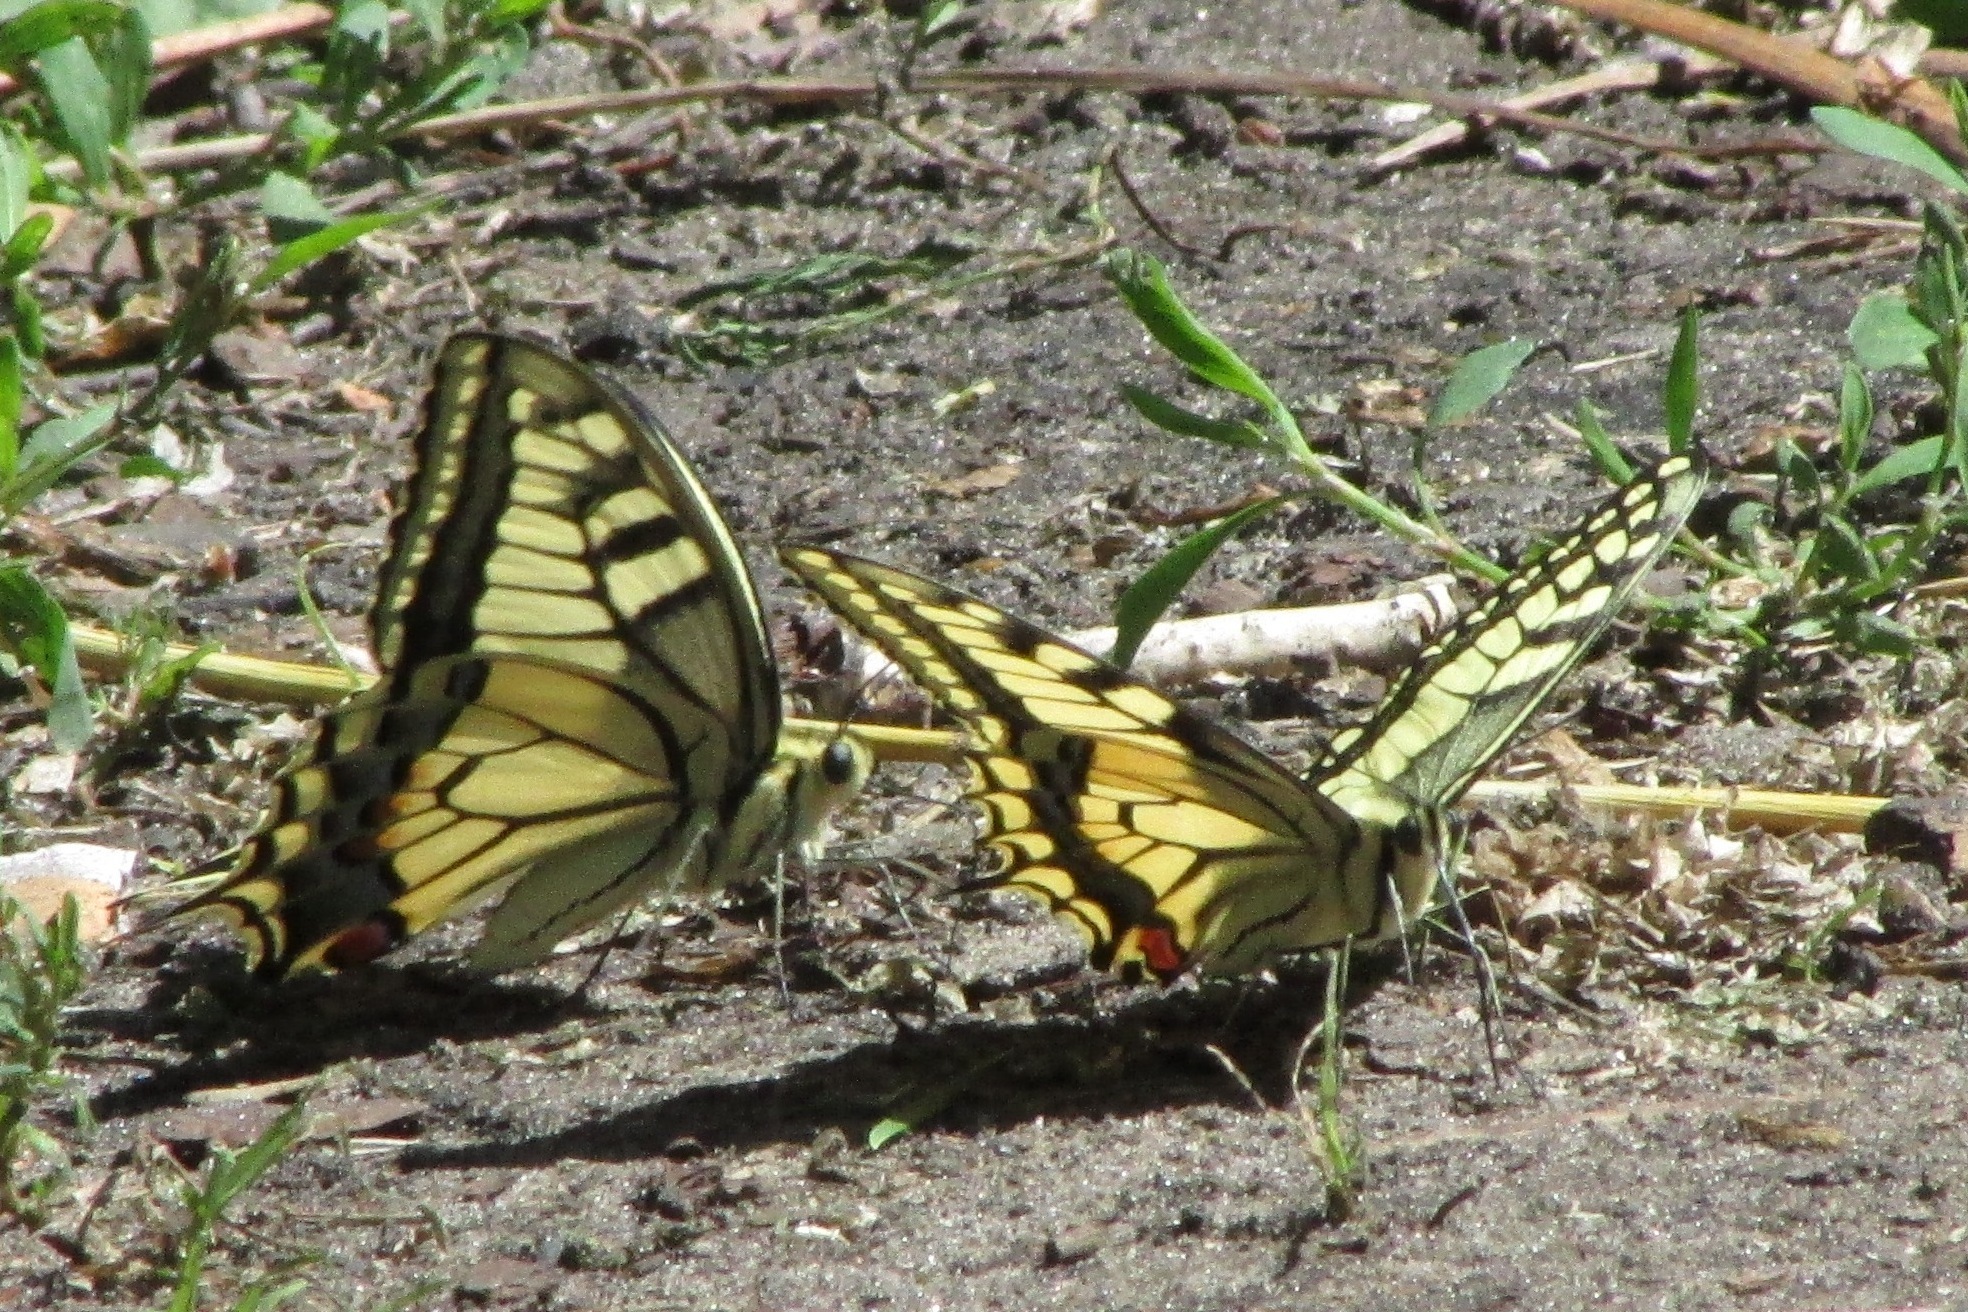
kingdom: Animalia
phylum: Arthropoda
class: Insecta
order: Lepidoptera
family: Papilionidae
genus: Papilio
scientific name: Papilio machaon
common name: Swallowtail
